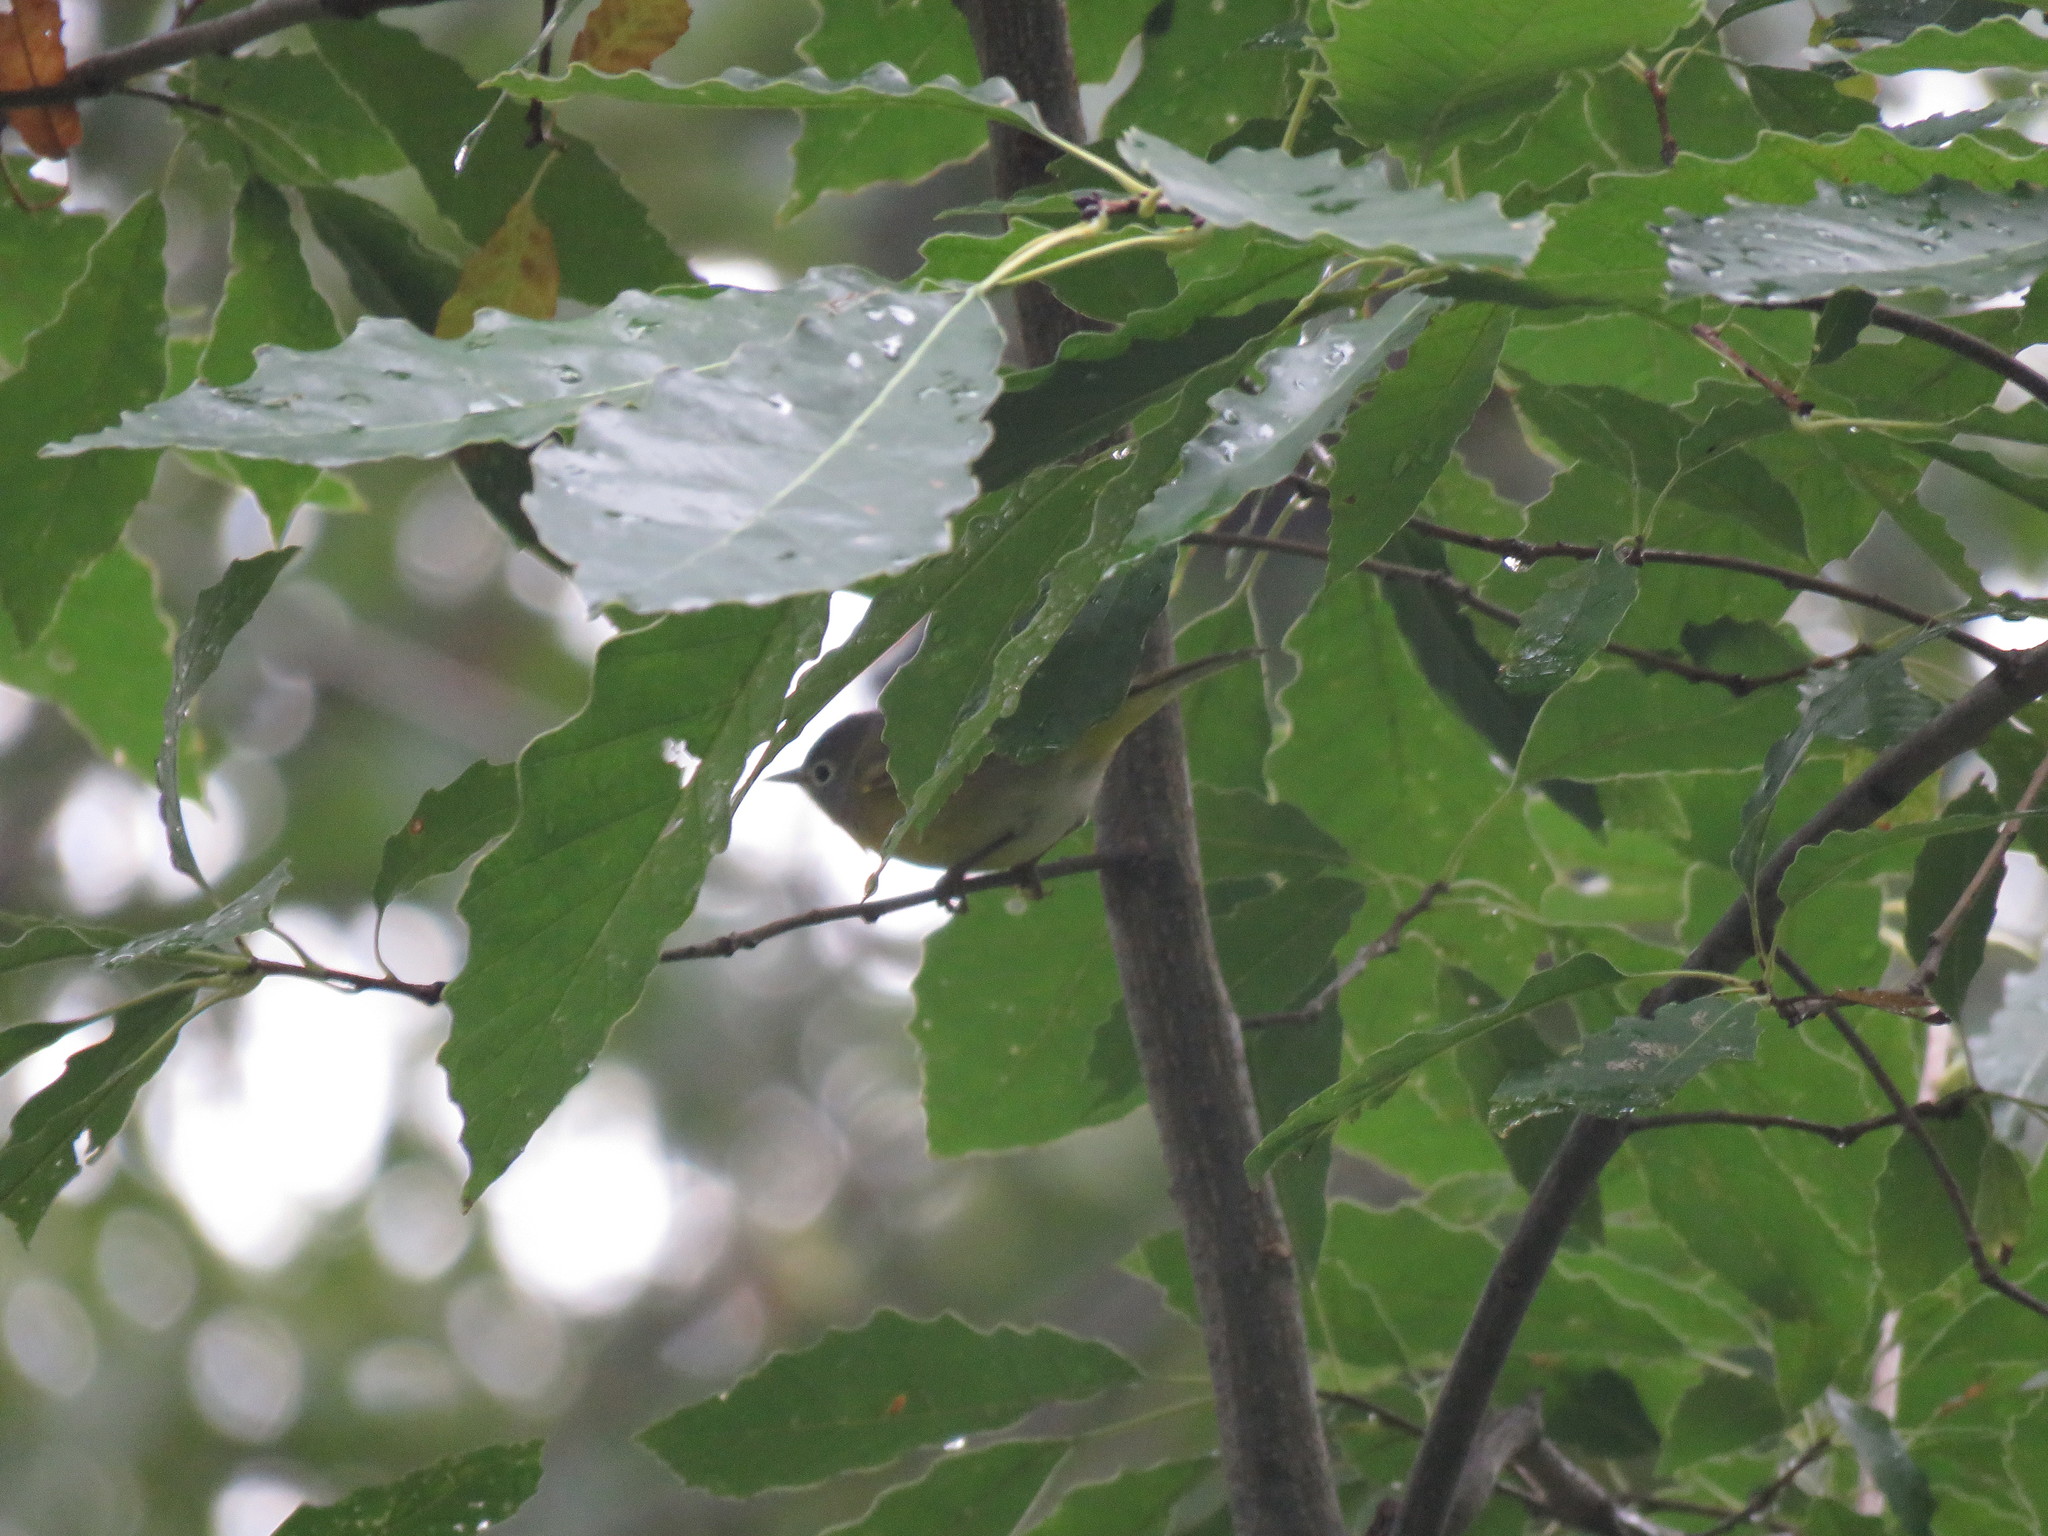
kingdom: Animalia
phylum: Chordata
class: Aves
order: Passeriformes
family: Parulidae
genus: Leiothlypis
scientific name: Leiothlypis ruficapilla
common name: Nashville warbler
